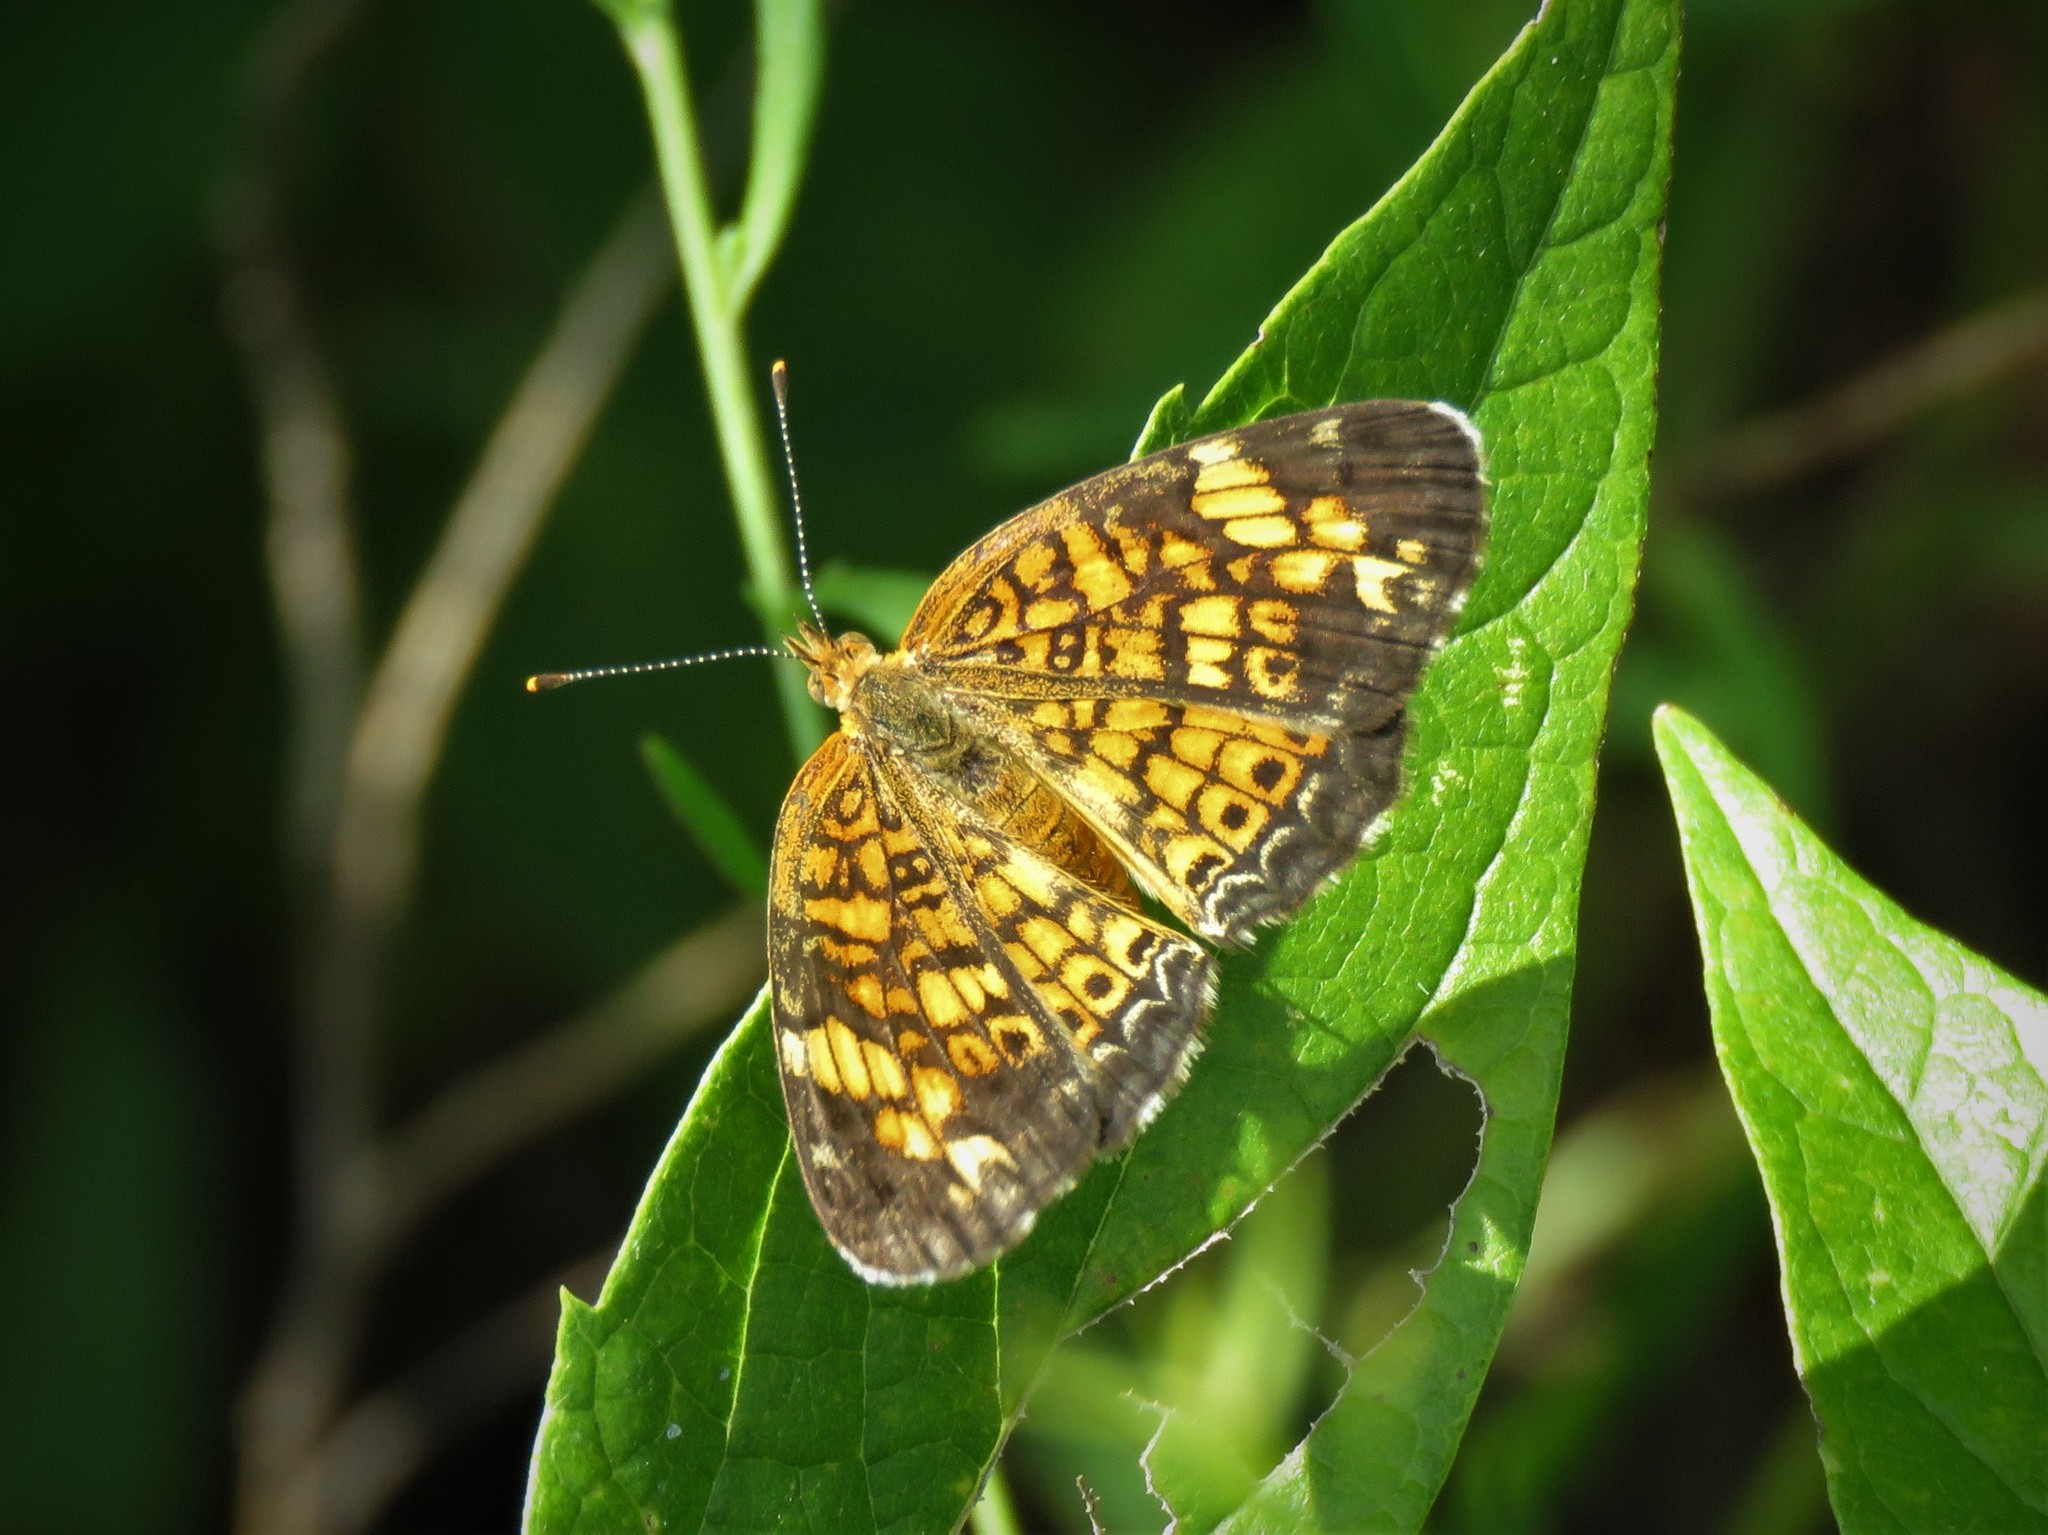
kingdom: Animalia
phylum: Arthropoda
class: Insecta
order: Lepidoptera
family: Nymphalidae
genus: Phyciodes
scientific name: Phyciodes tharos
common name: Pearl crescent
